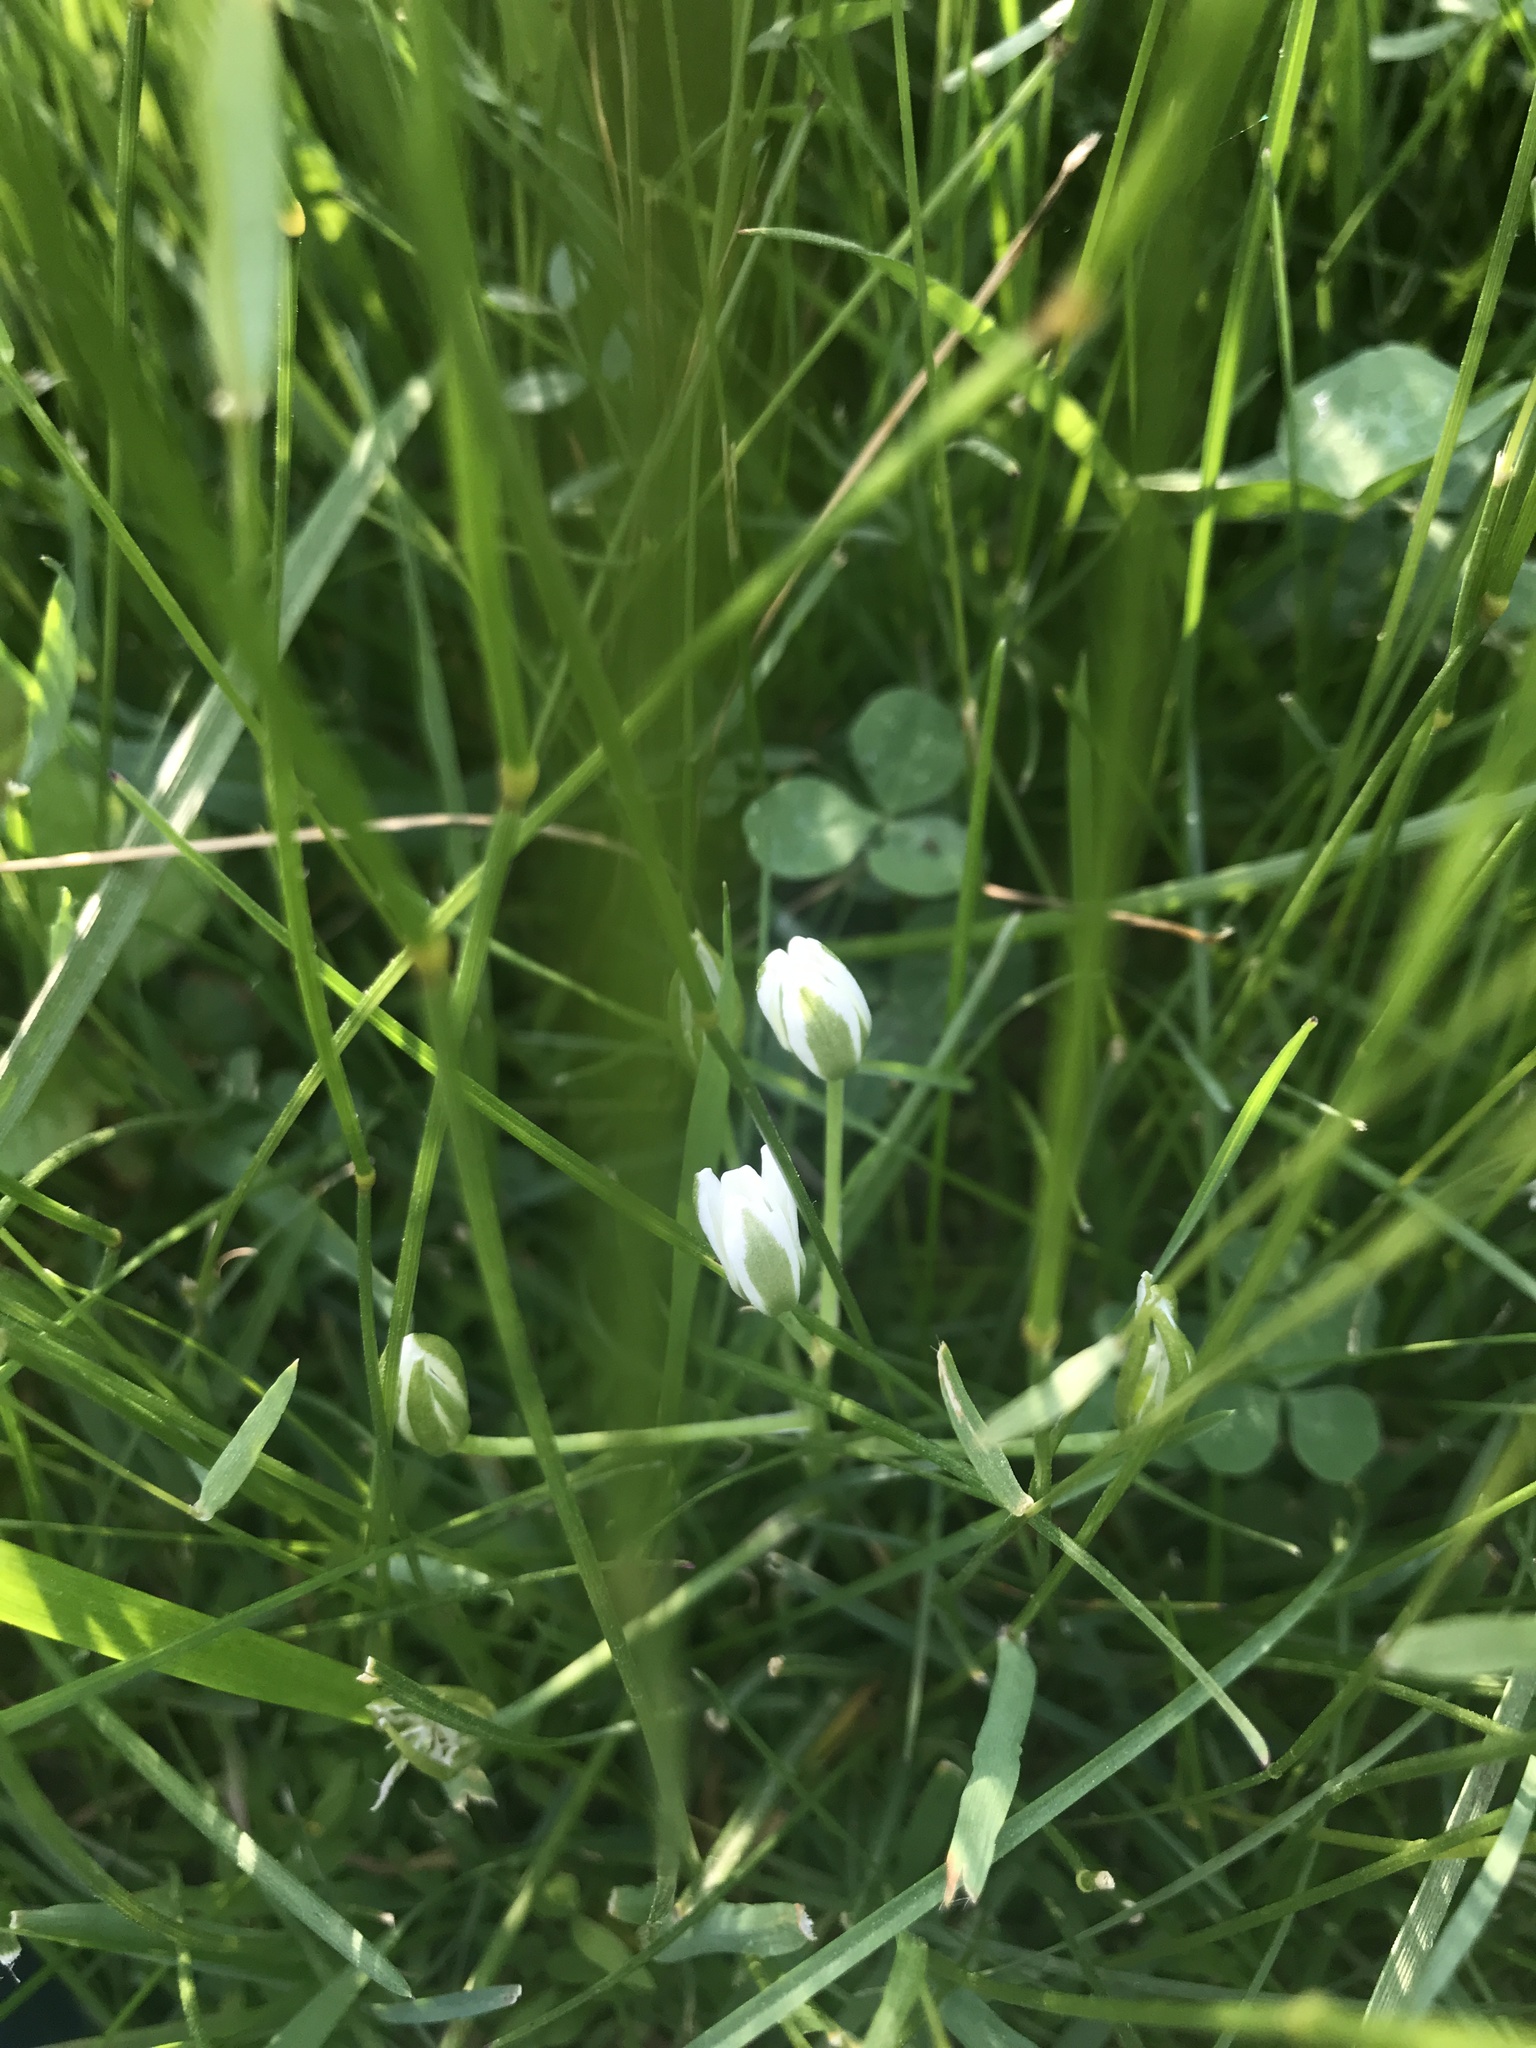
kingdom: Plantae
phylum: Tracheophyta
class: Liliopsida
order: Asparagales
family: Asparagaceae
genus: Ornithogalum
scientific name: Ornithogalum umbellatum
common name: Garden star-of-bethlehem
